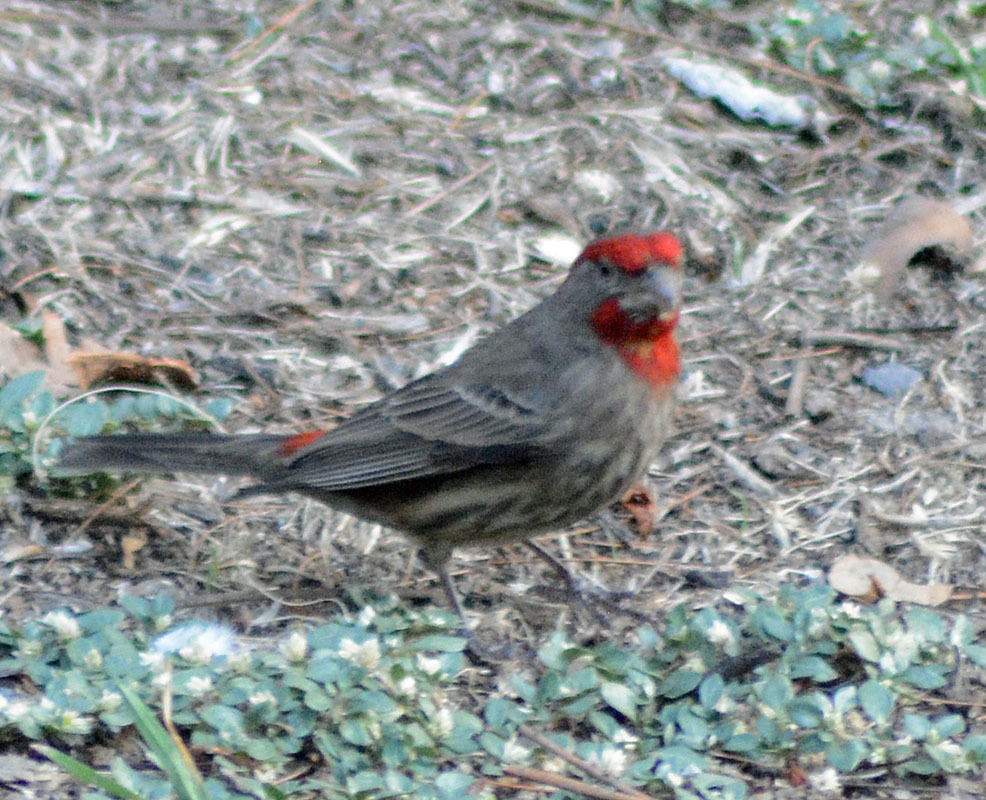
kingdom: Animalia
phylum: Chordata
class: Aves
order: Passeriformes
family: Fringillidae
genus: Haemorhous
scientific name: Haemorhous mexicanus
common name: House finch
